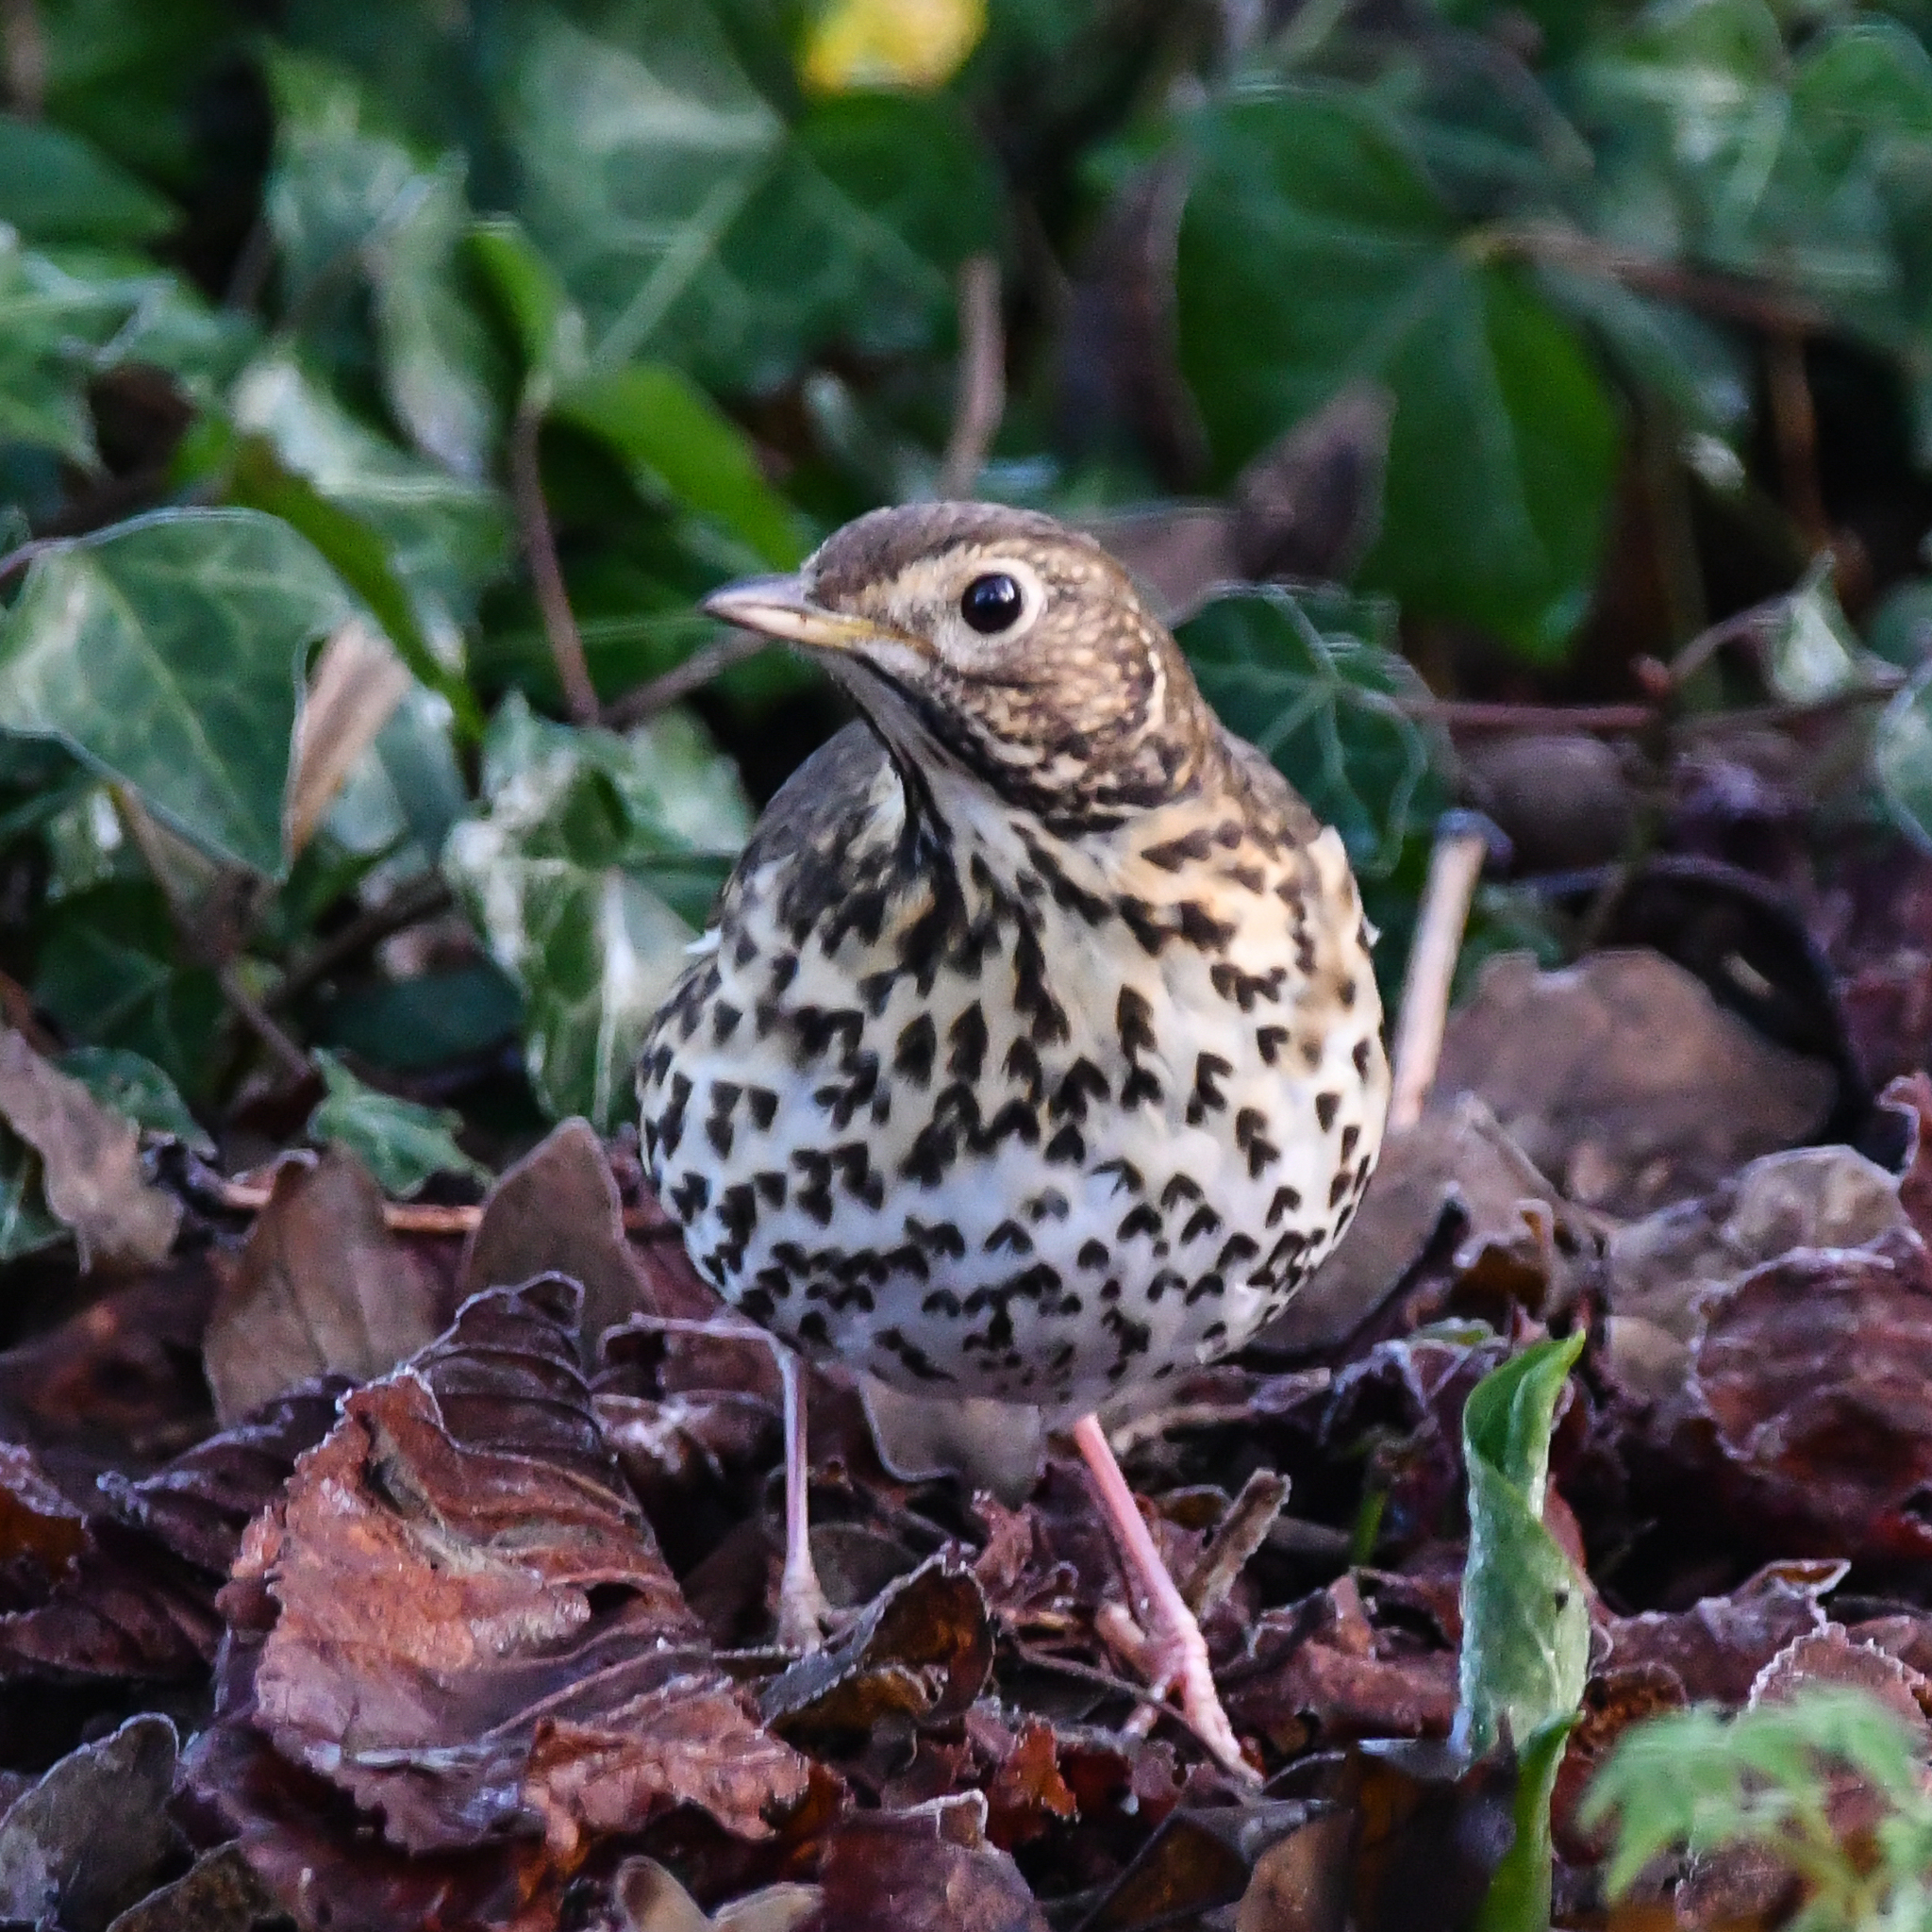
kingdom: Animalia
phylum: Chordata
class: Aves
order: Passeriformes
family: Turdidae
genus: Turdus
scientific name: Turdus philomelos
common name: Song thrush
